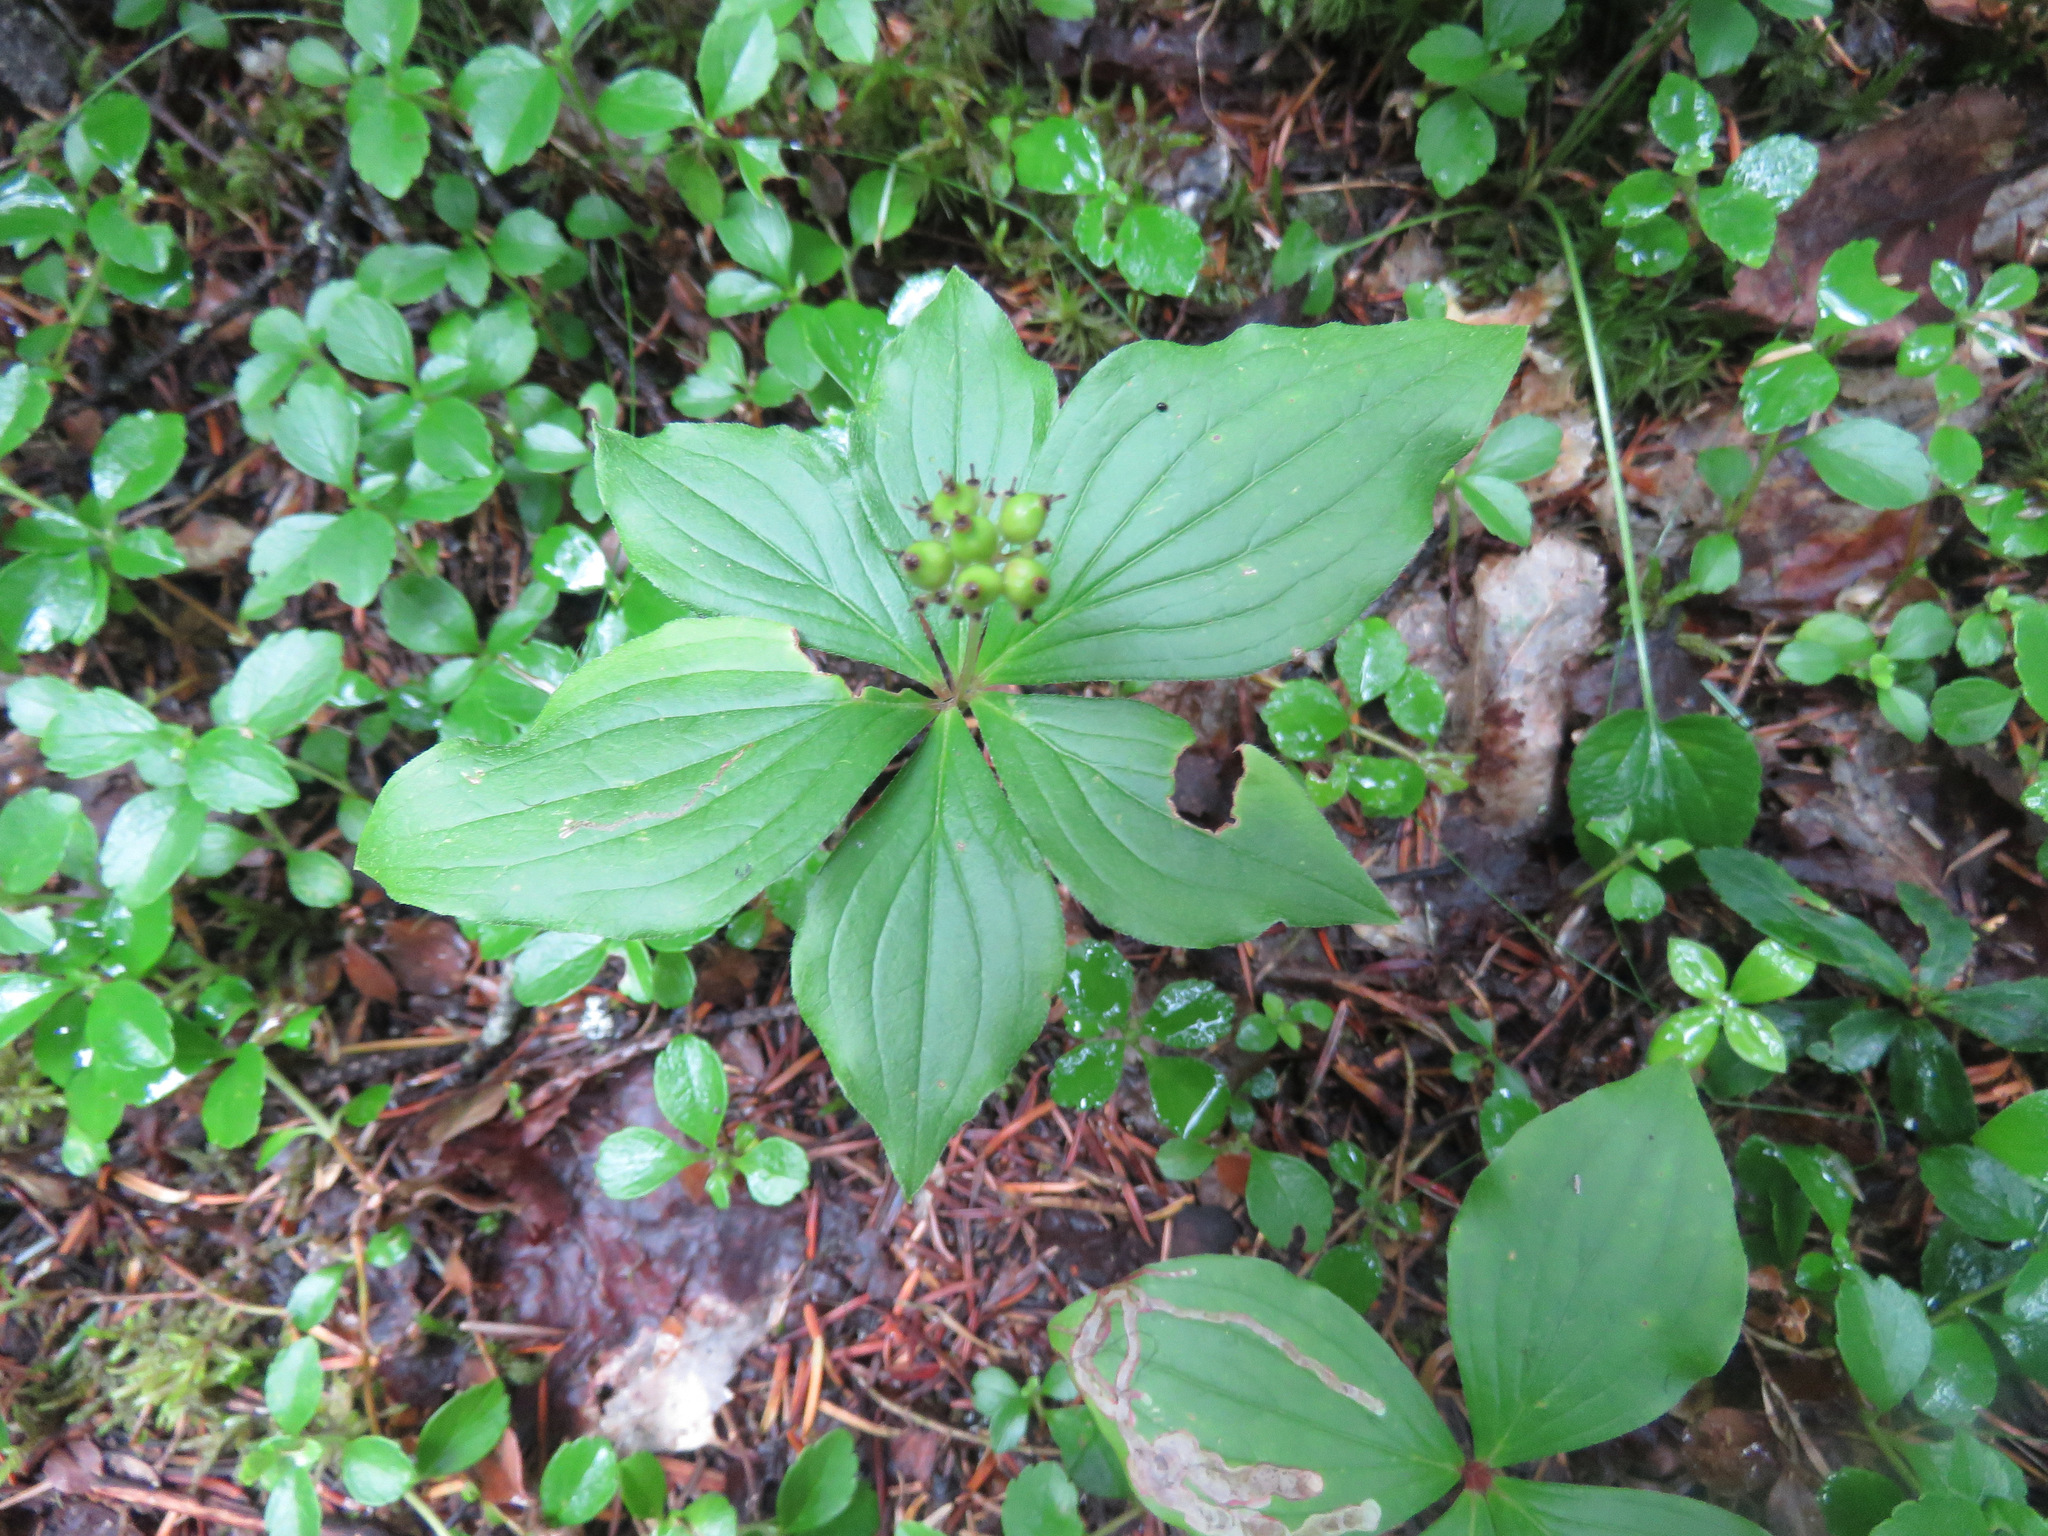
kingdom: Plantae
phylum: Tracheophyta
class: Magnoliopsida
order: Cornales
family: Cornaceae
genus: Cornus
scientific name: Cornus canadensis
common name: Creeping dogwood
